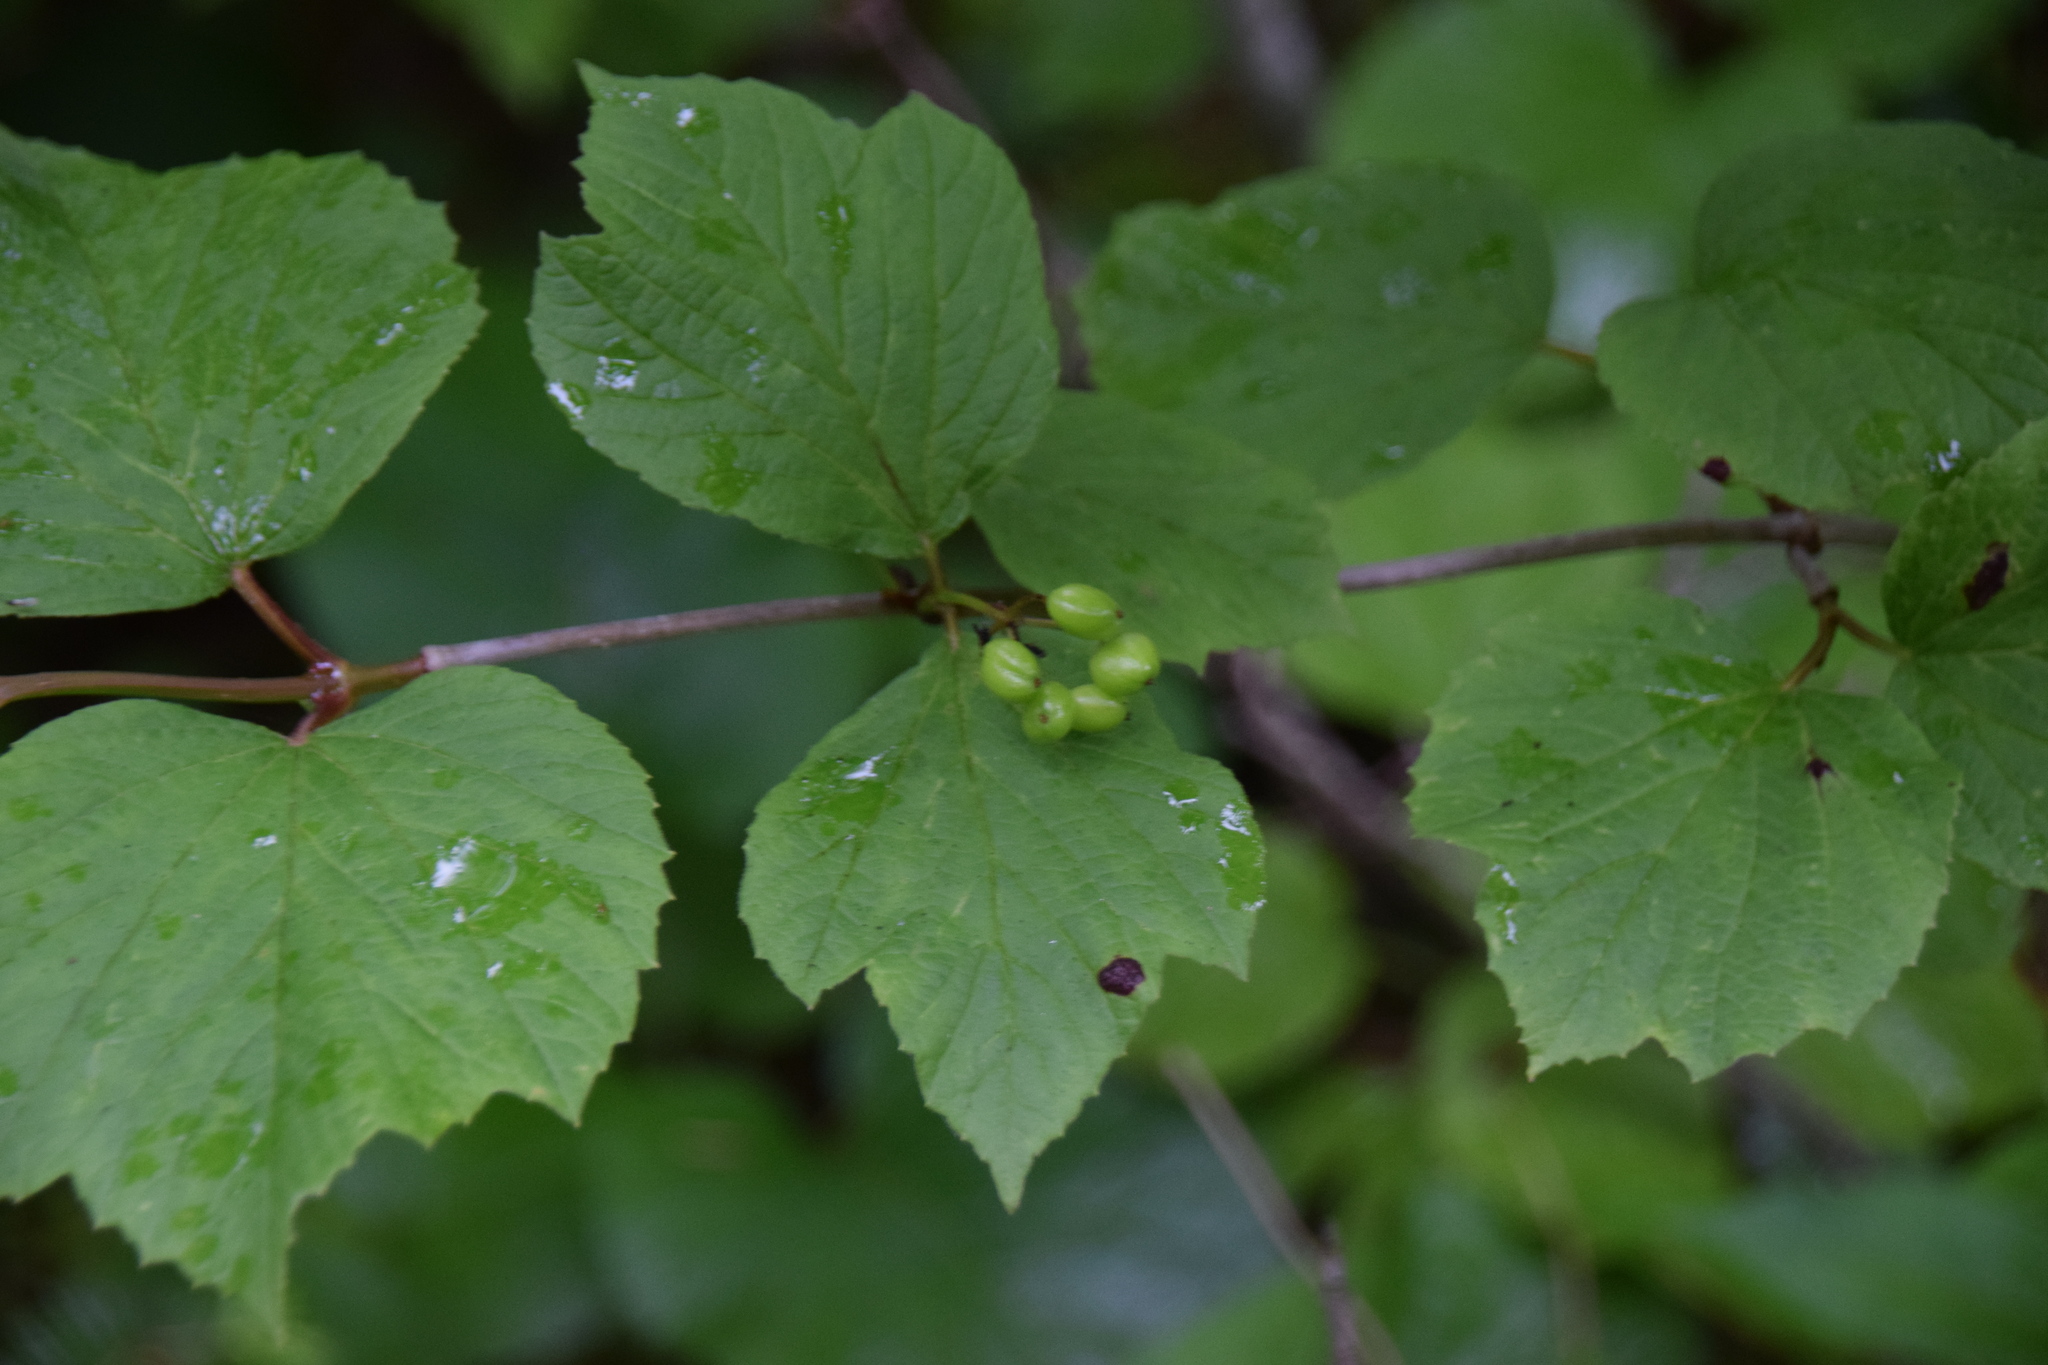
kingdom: Plantae
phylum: Tracheophyta
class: Magnoliopsida
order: Dipsacales
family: Viburnaceae
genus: Viburnum
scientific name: Viburnum edule
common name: Mooseberry
